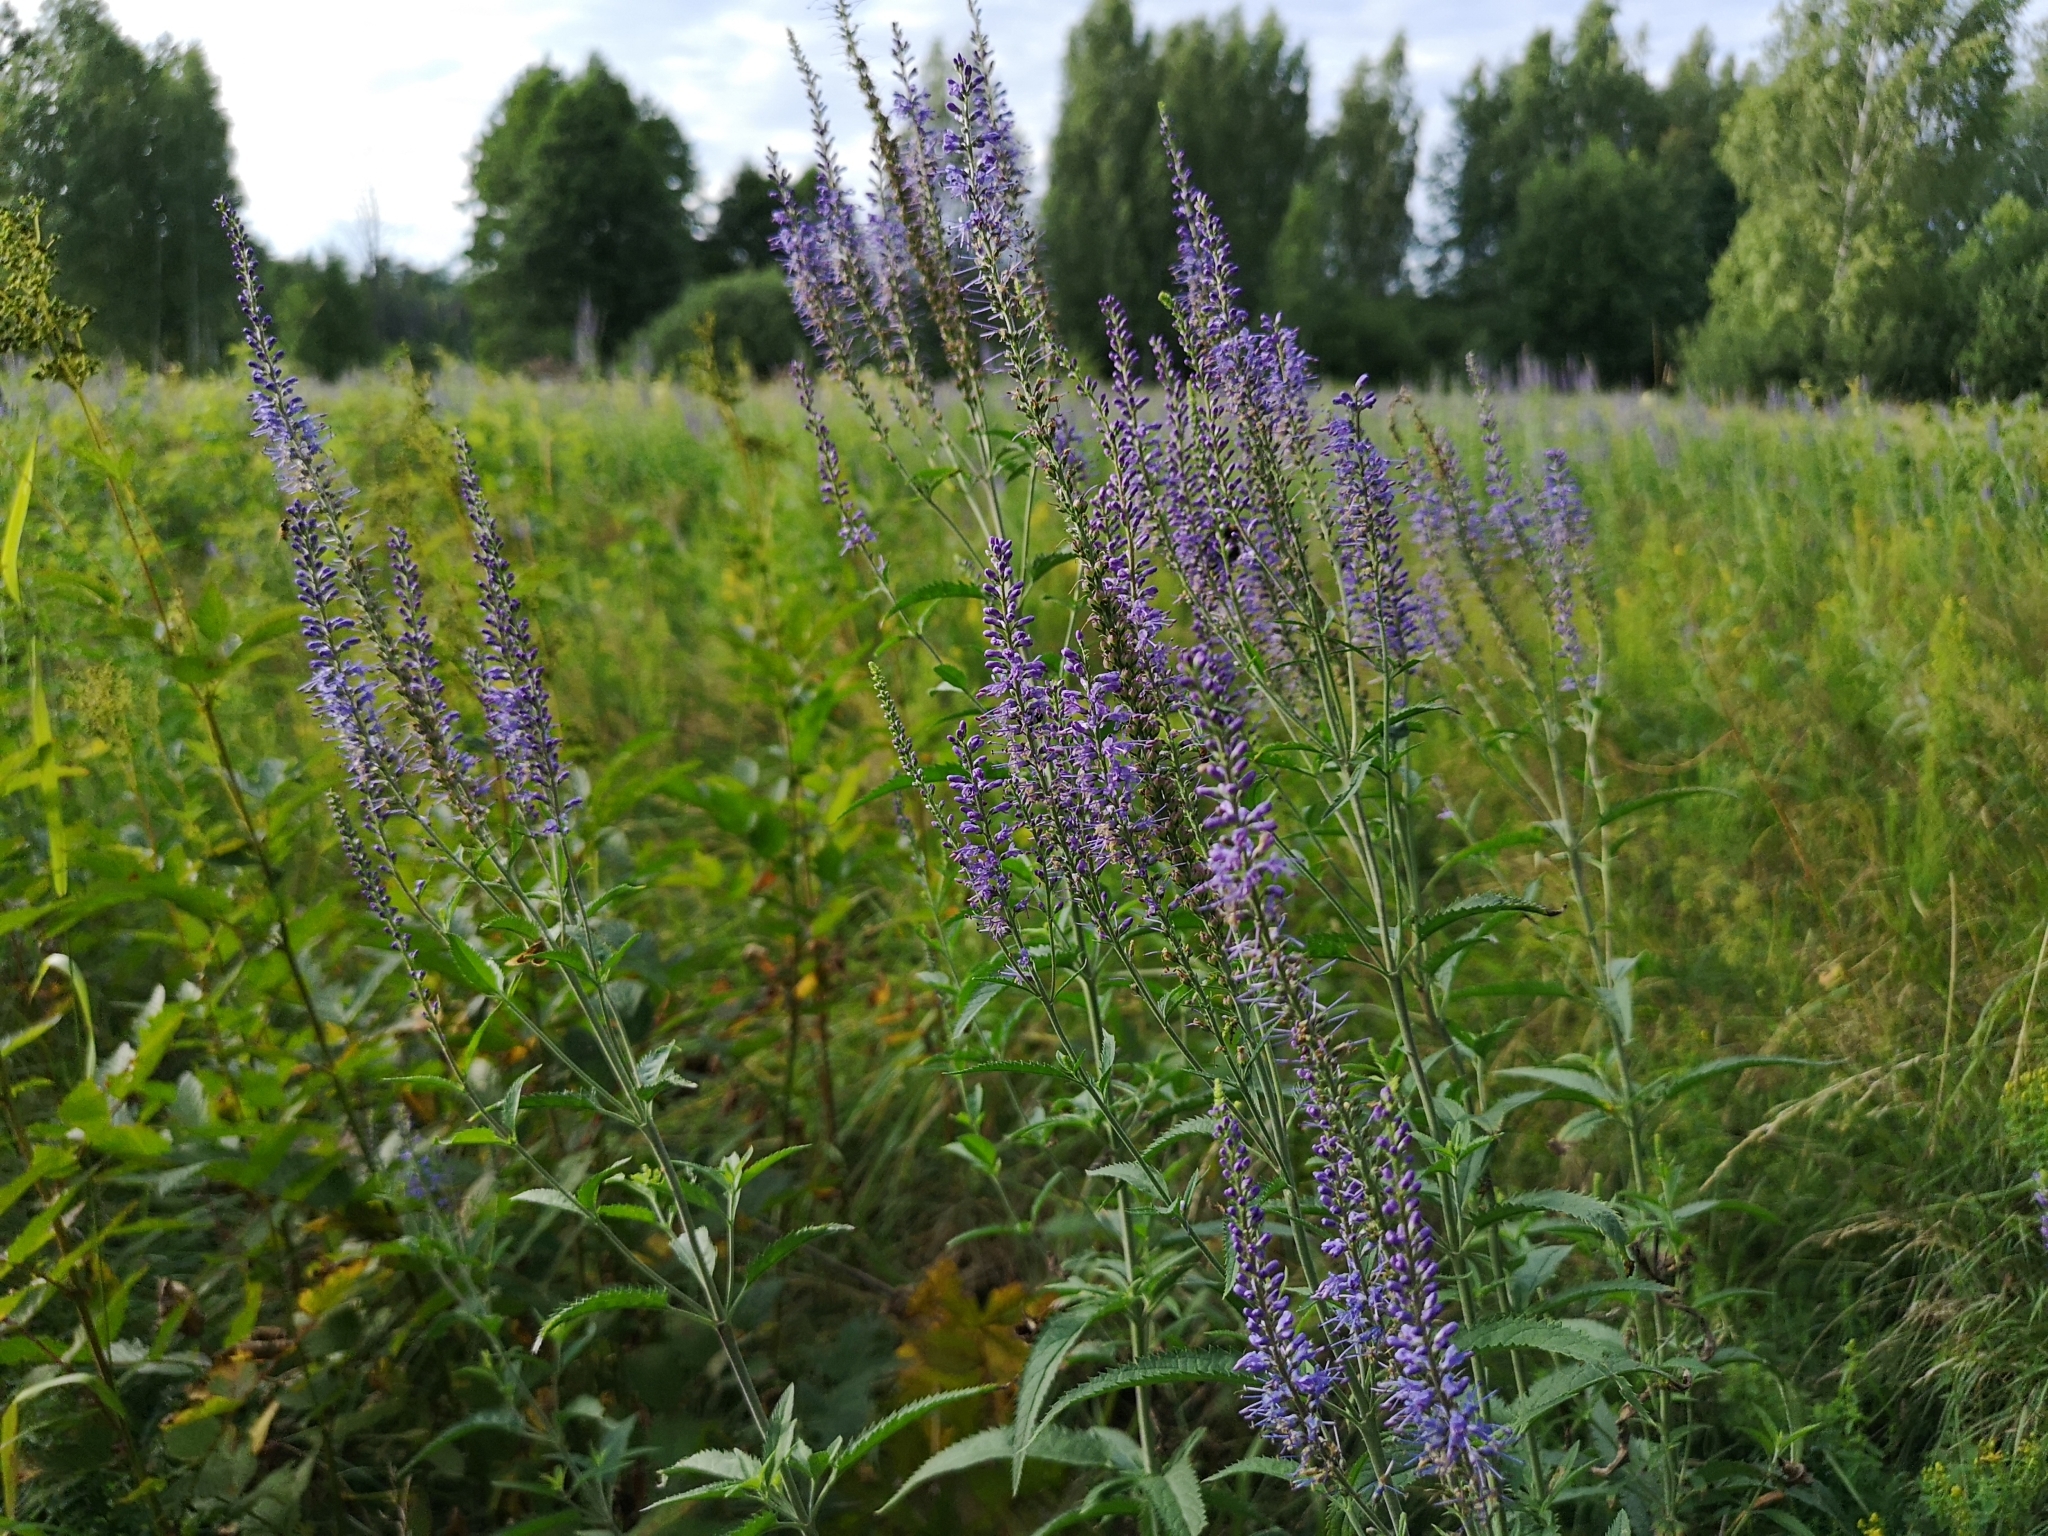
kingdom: Plantae
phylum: Tracheophyta
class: Magnoliopsida
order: Lamiales
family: Plantaginaceae
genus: Veronica
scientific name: Veronica longifolia
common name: Garden speedwell
